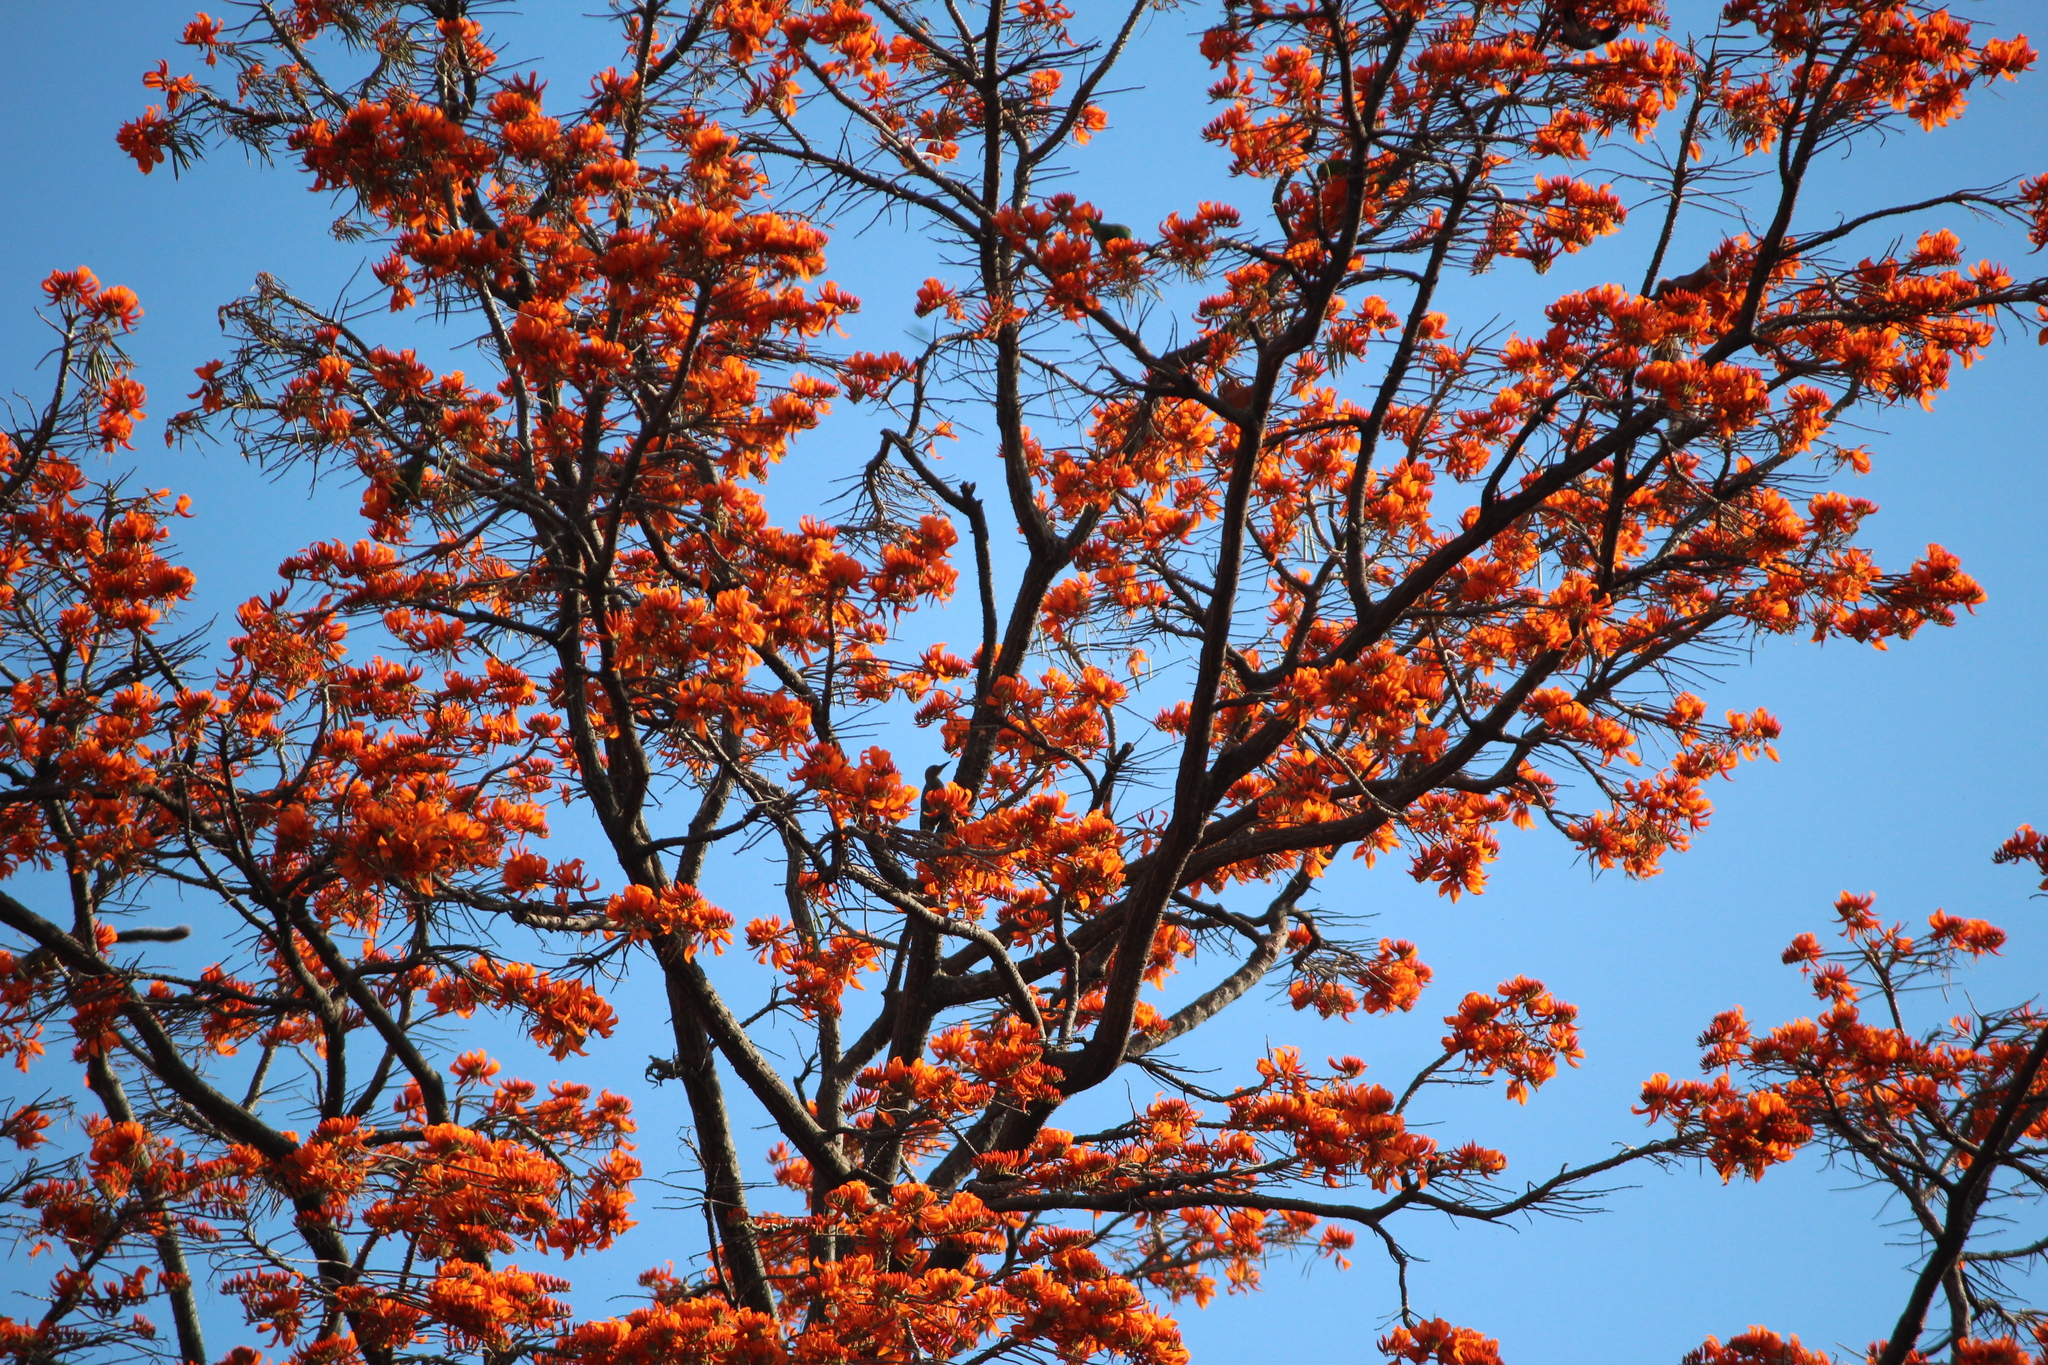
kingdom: Plantae
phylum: Tracheophyta
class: Magnoliopsida
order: Fabales
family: Fabaceae
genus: Erythrina
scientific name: Erythrina poeppigiana
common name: Coral tree
